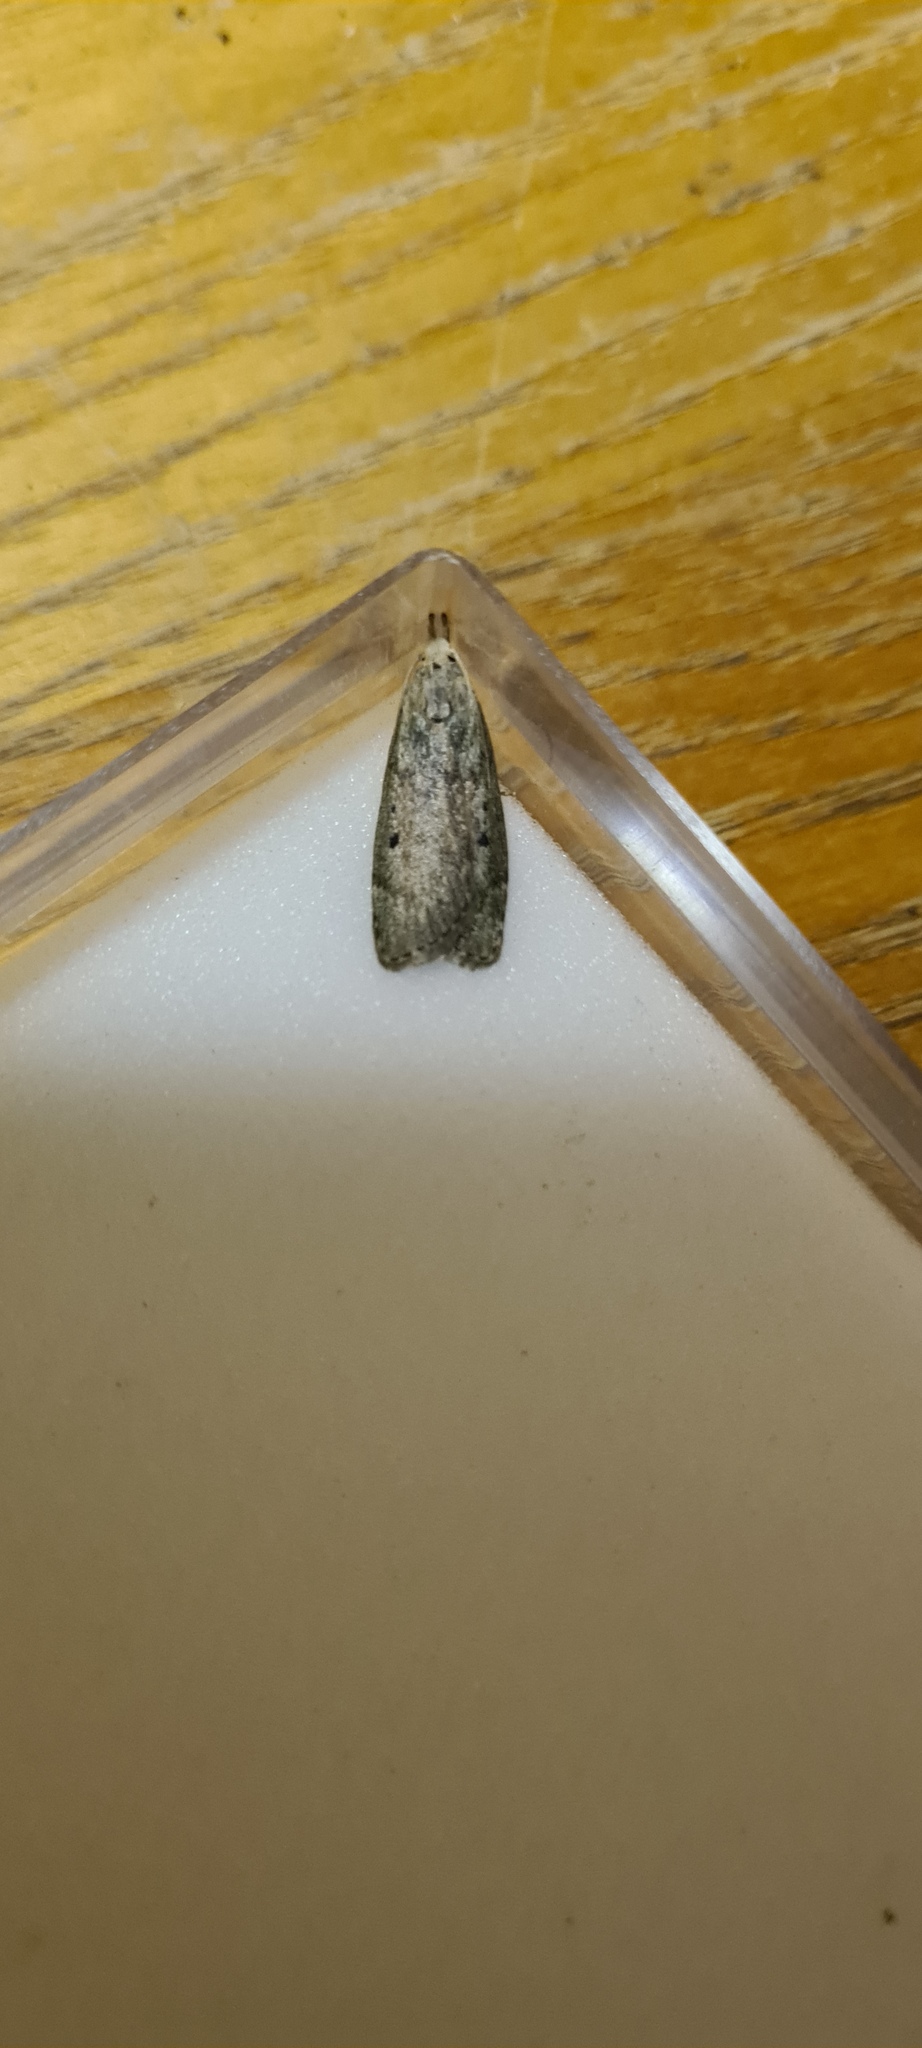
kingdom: Animalia
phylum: Arthropoda
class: Insecta
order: Lepidoptera
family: Pyralidae
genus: Aphomia
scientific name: Aphomia sociella
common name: Bee moth
